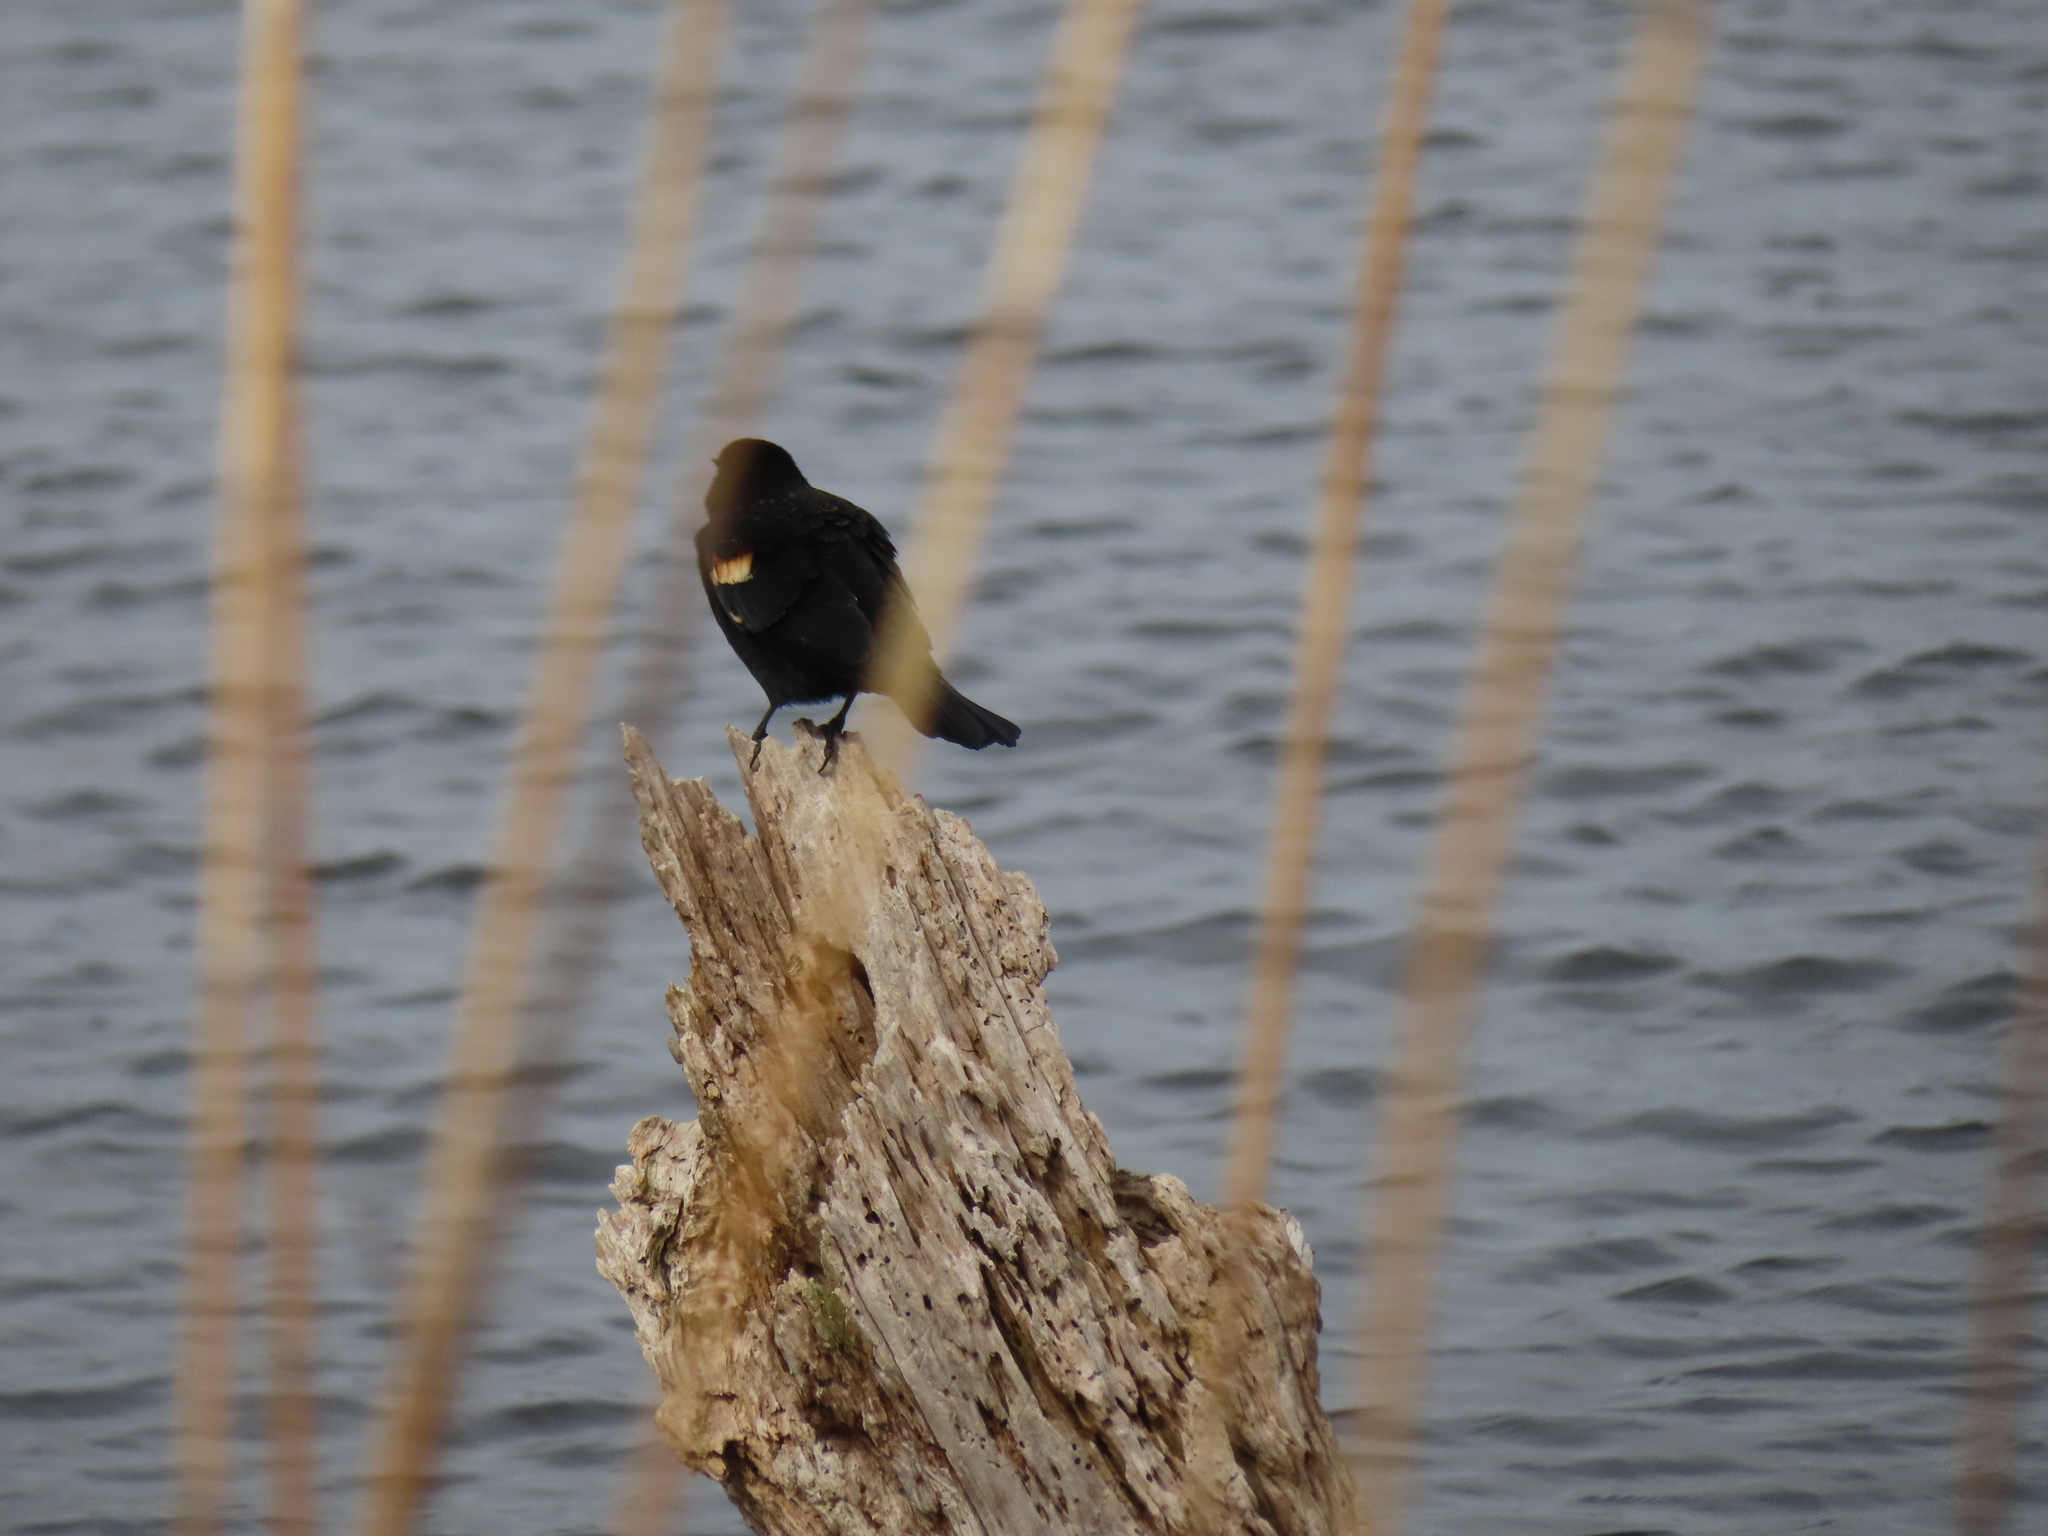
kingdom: Animalia
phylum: Chordata
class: Aves
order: Passeriformes
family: Icteridae
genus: Agelaius
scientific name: Agelaius phoeniceus
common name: Red-winged blackbird
